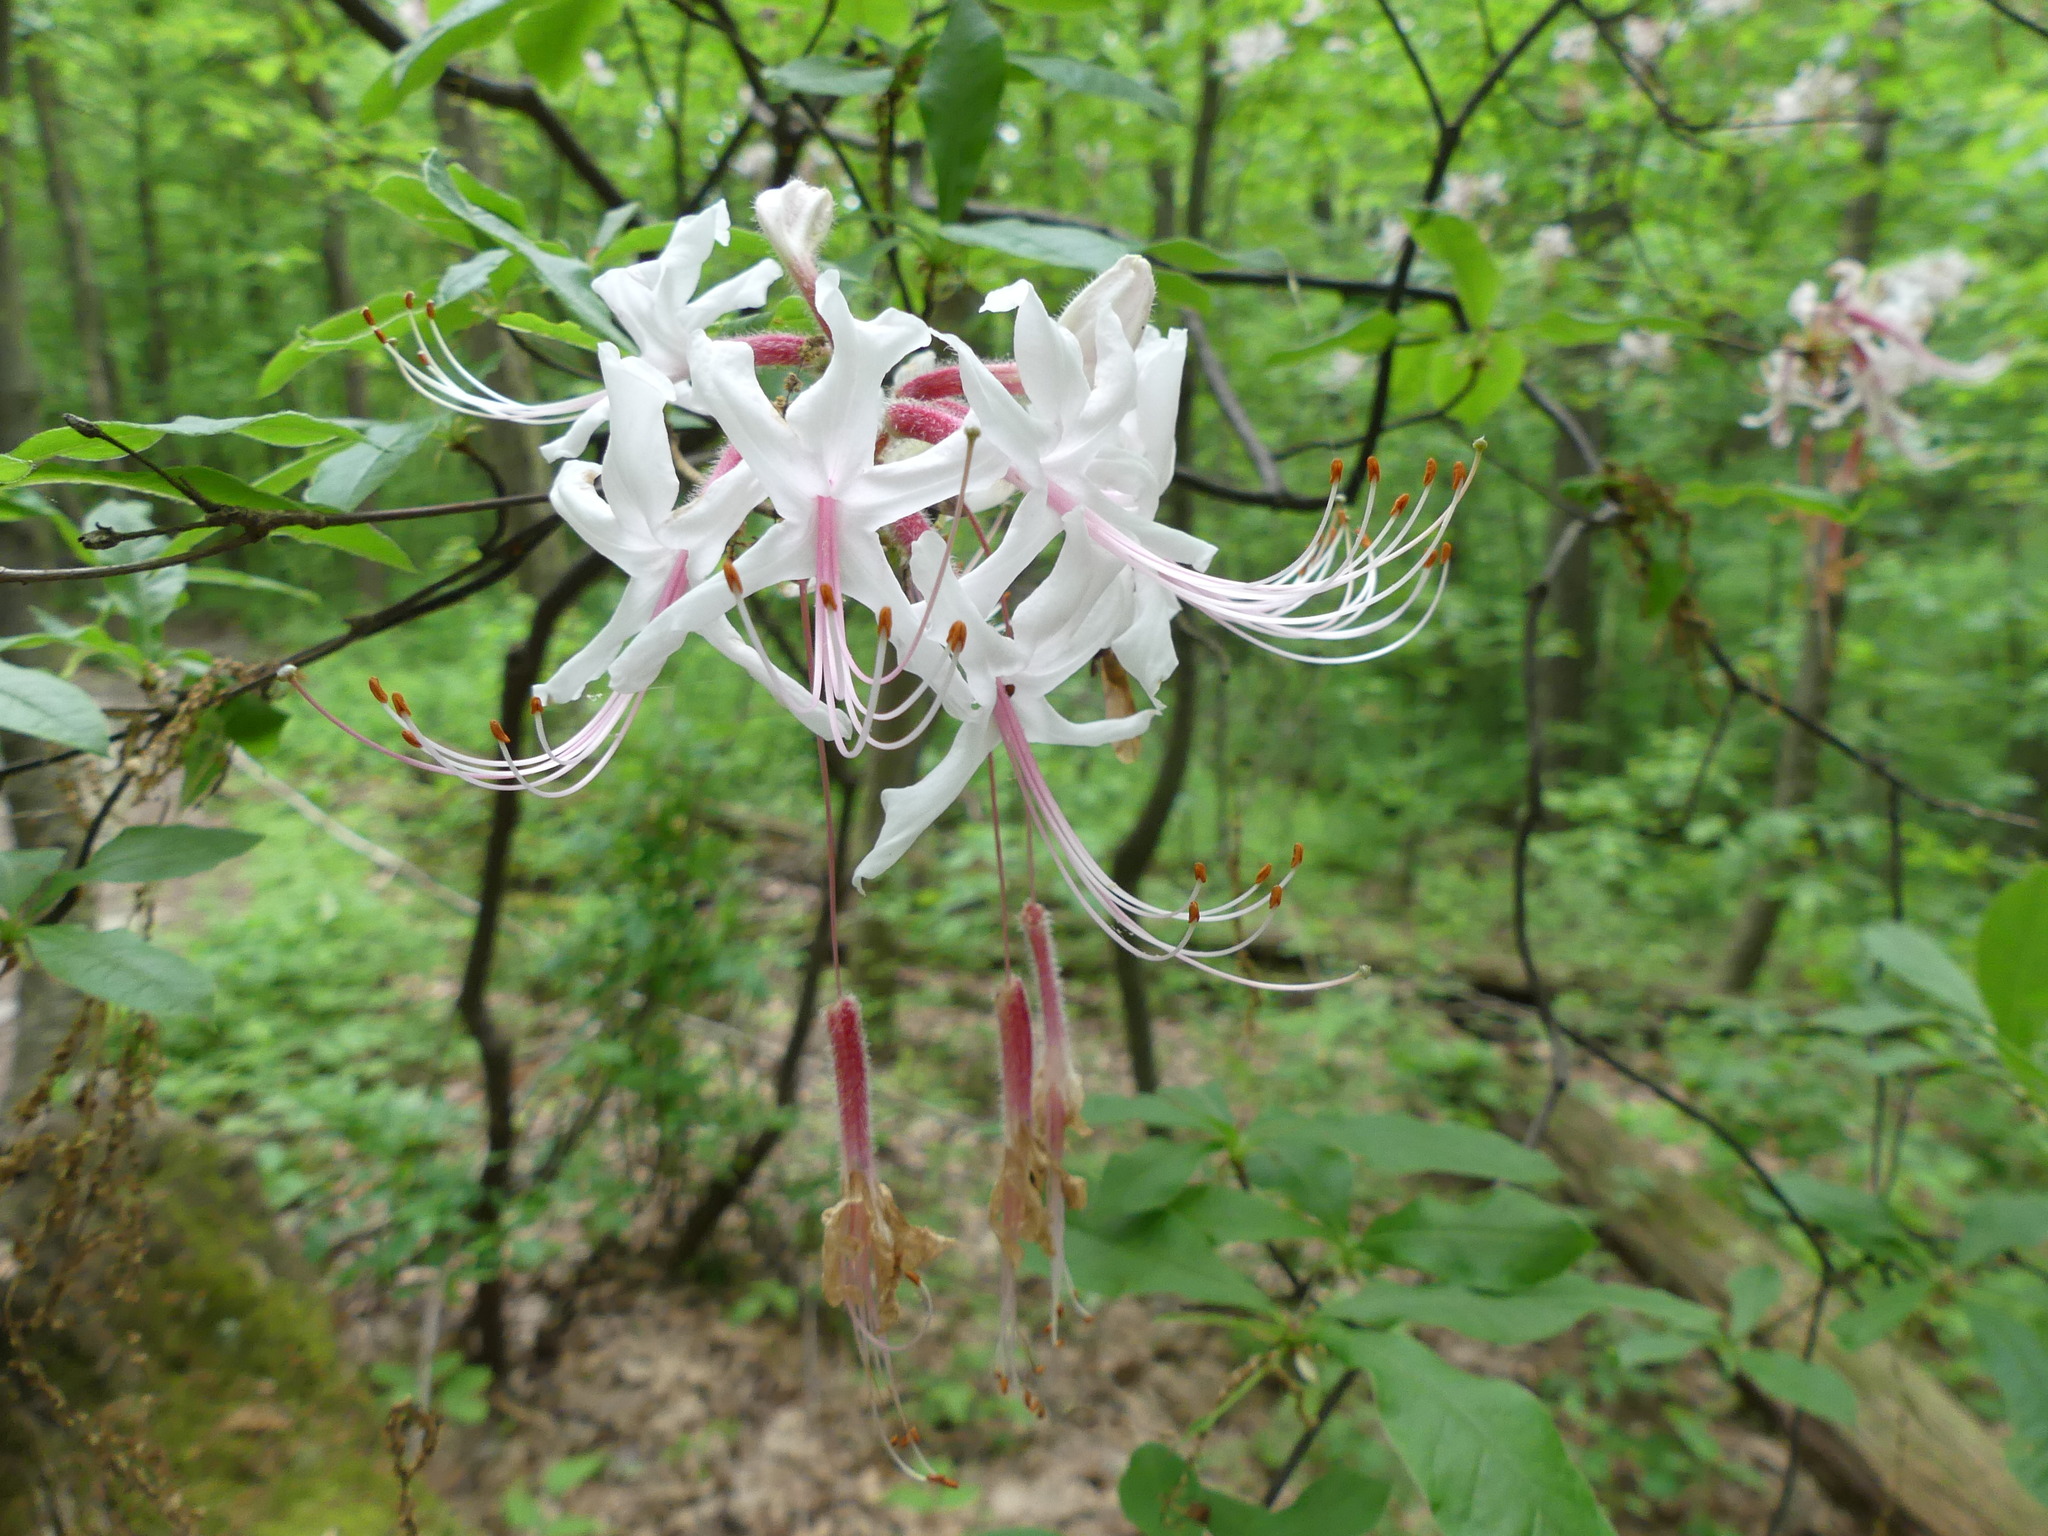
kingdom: Plantae
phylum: Tracheophyta
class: Magnoliopsida
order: Ericales
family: Ericaceae
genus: Rhododendron
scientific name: Rhododendron periclymenoides
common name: Election-pink
